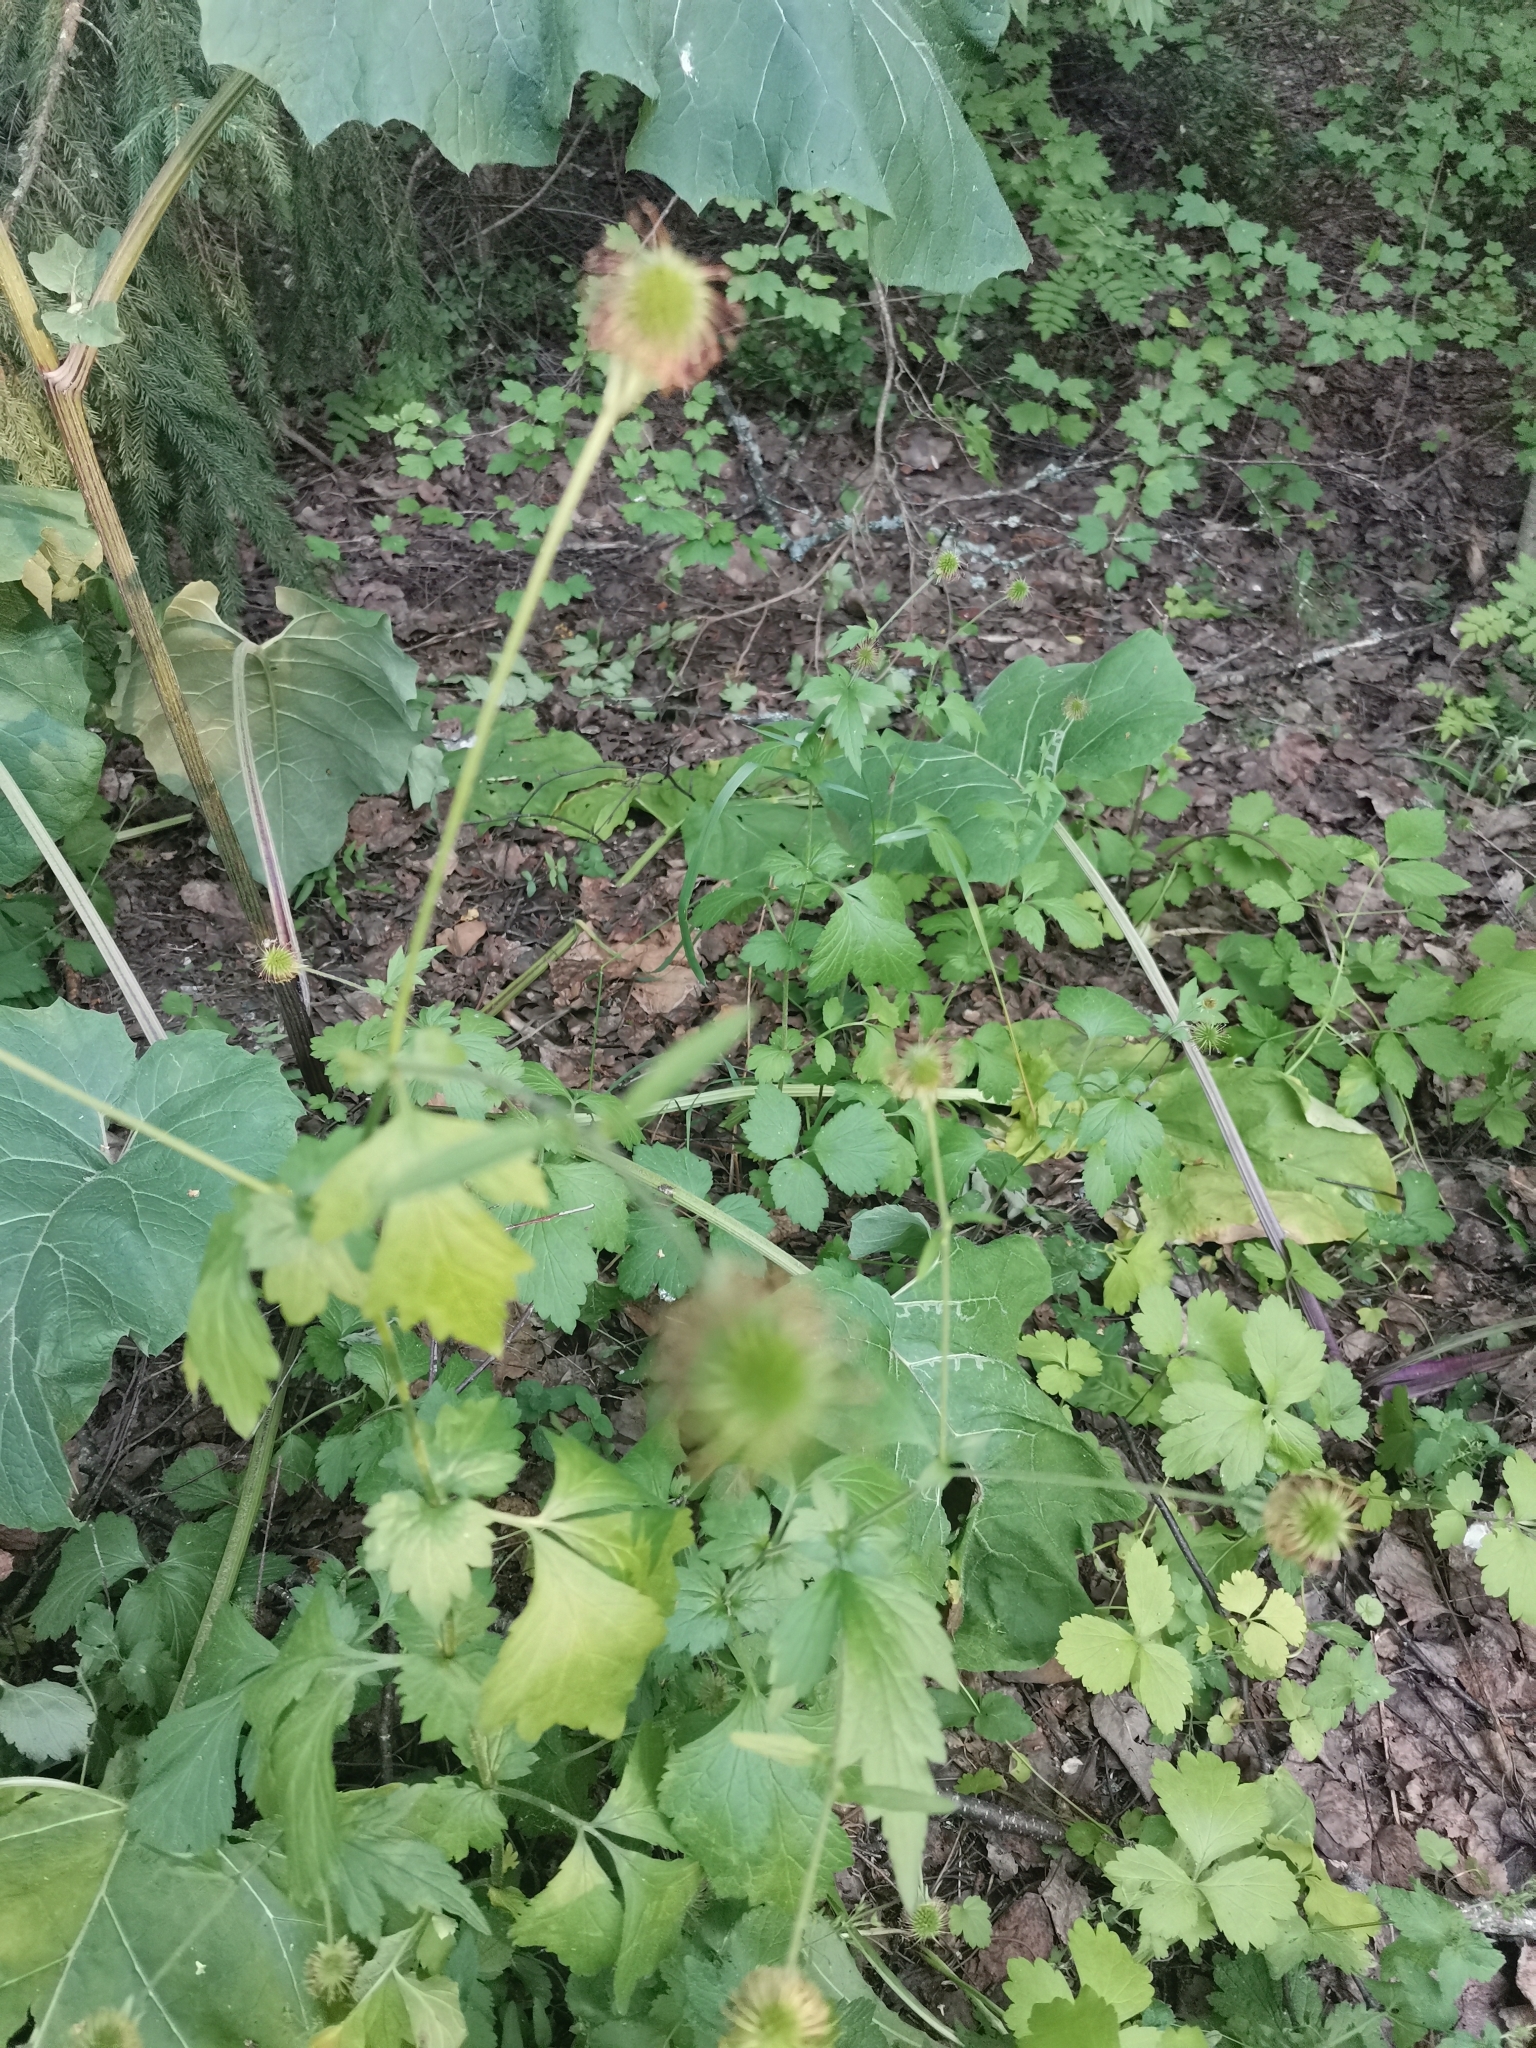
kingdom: Plantae
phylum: Tracheophyta
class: Magnoliopsida
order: Rosales
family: Rosaceae
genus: Geum
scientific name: Geum urbanum
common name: Wood avens
